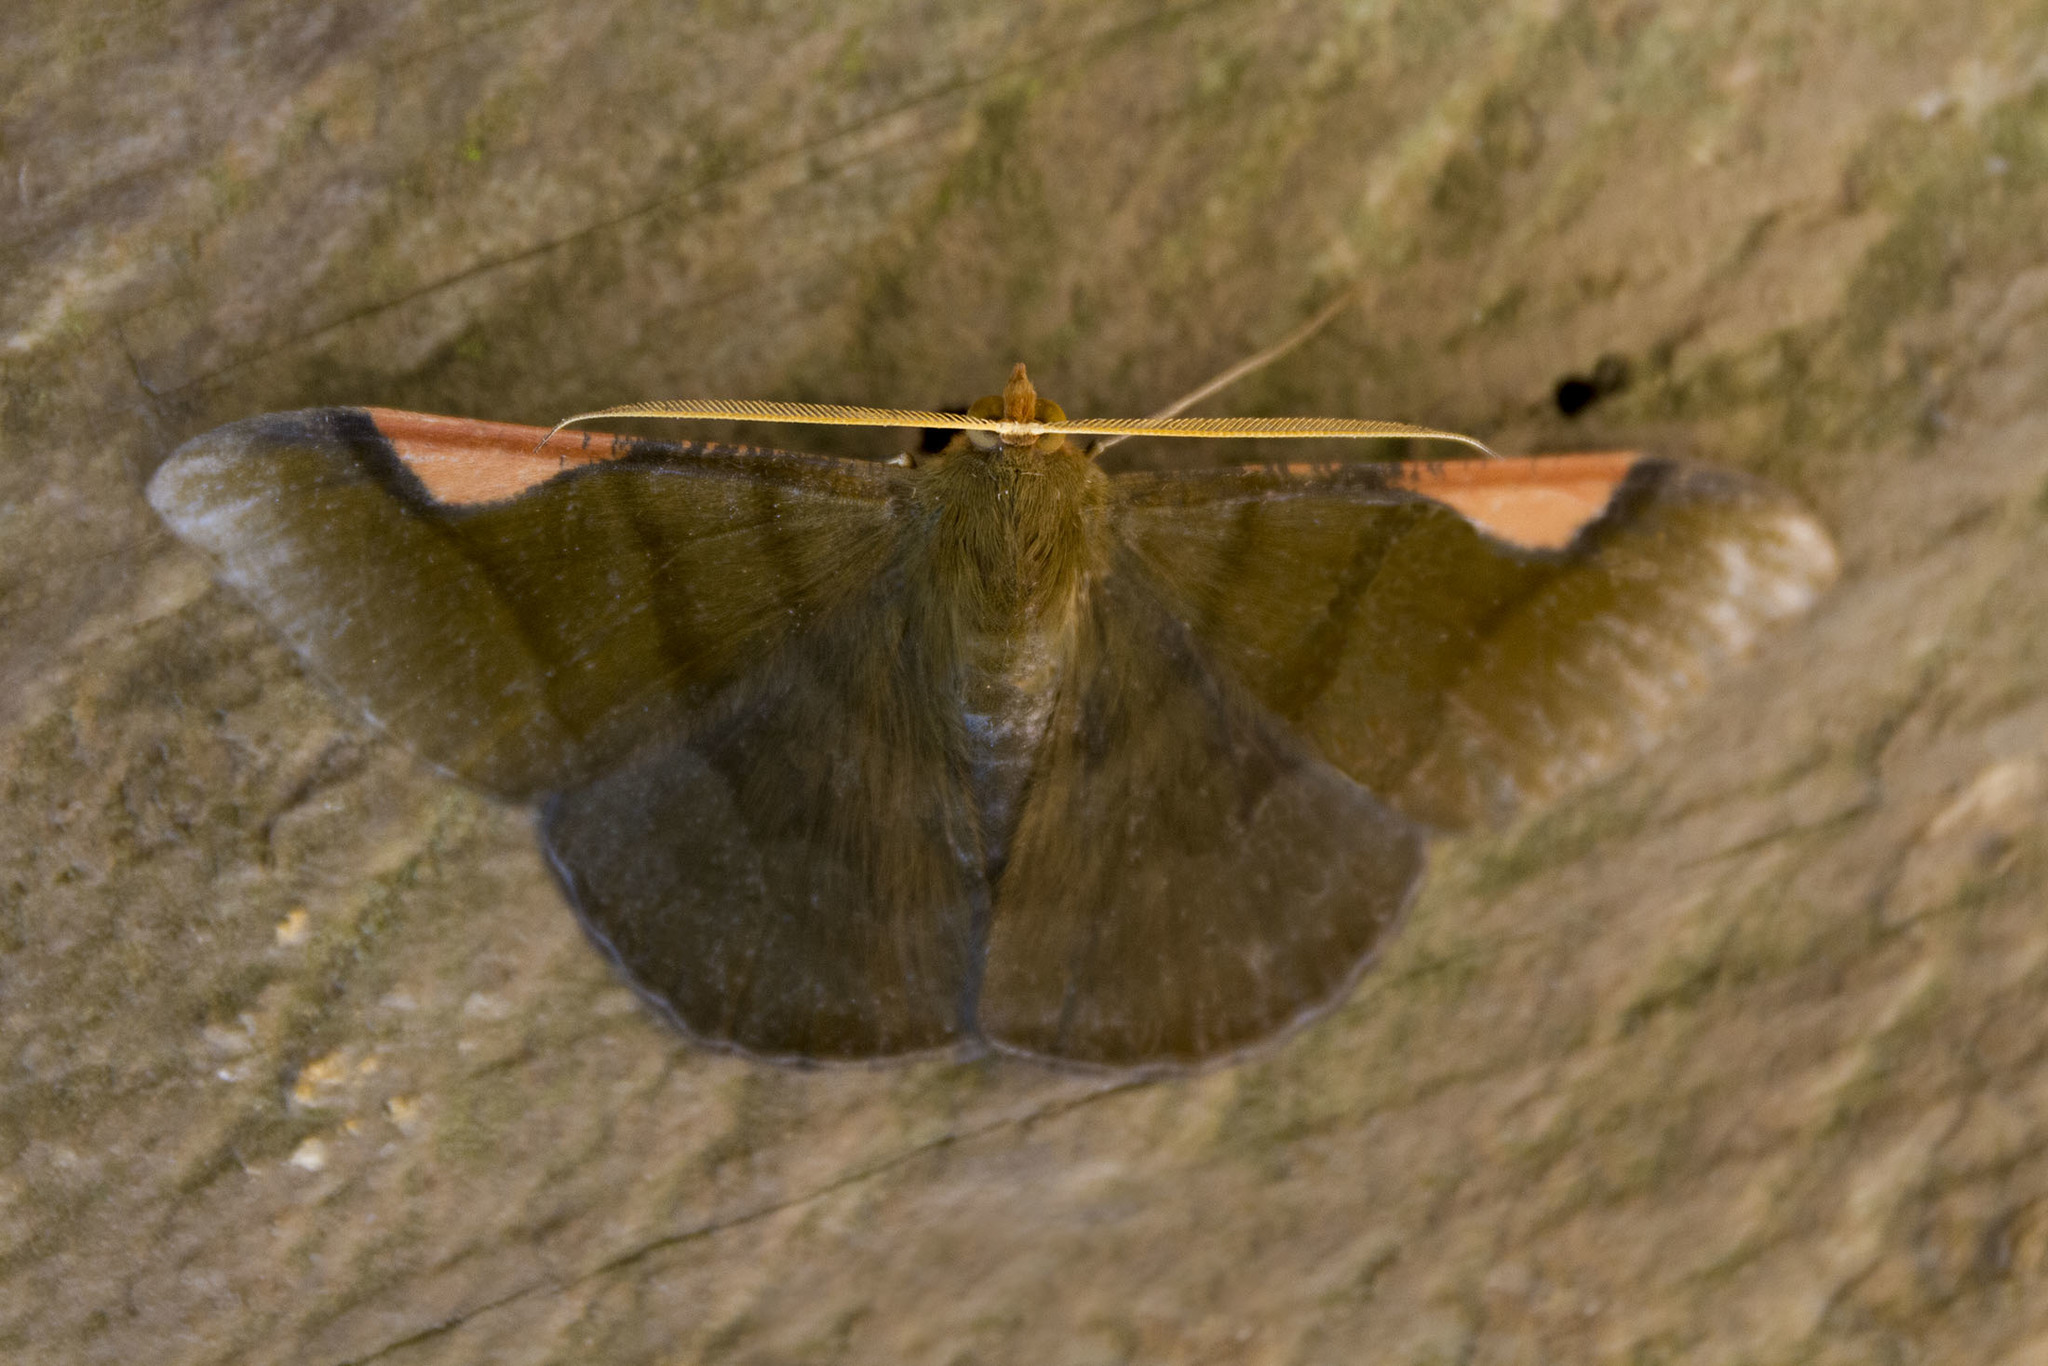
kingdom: Animalia
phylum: Arthropoda
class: Insecta
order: Lepidoptera
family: Geometridae
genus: Sphacelodes
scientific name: Sphacelodes vulneraria
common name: Looper moth
